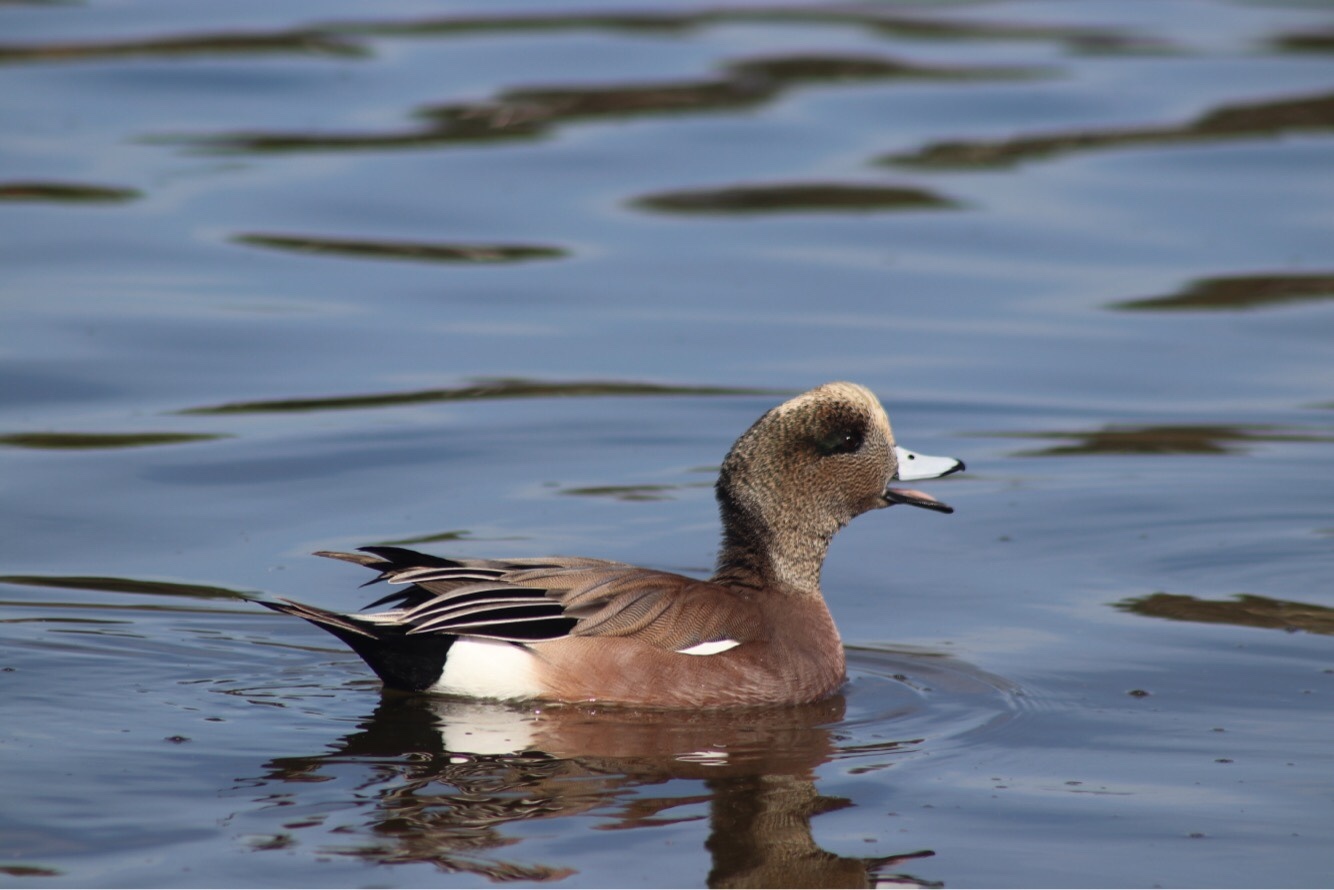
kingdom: Animalia
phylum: Chordata
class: Aves
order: Anseriformes
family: Anatidae
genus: Mareca
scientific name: Mareca americana
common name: American wigeon
